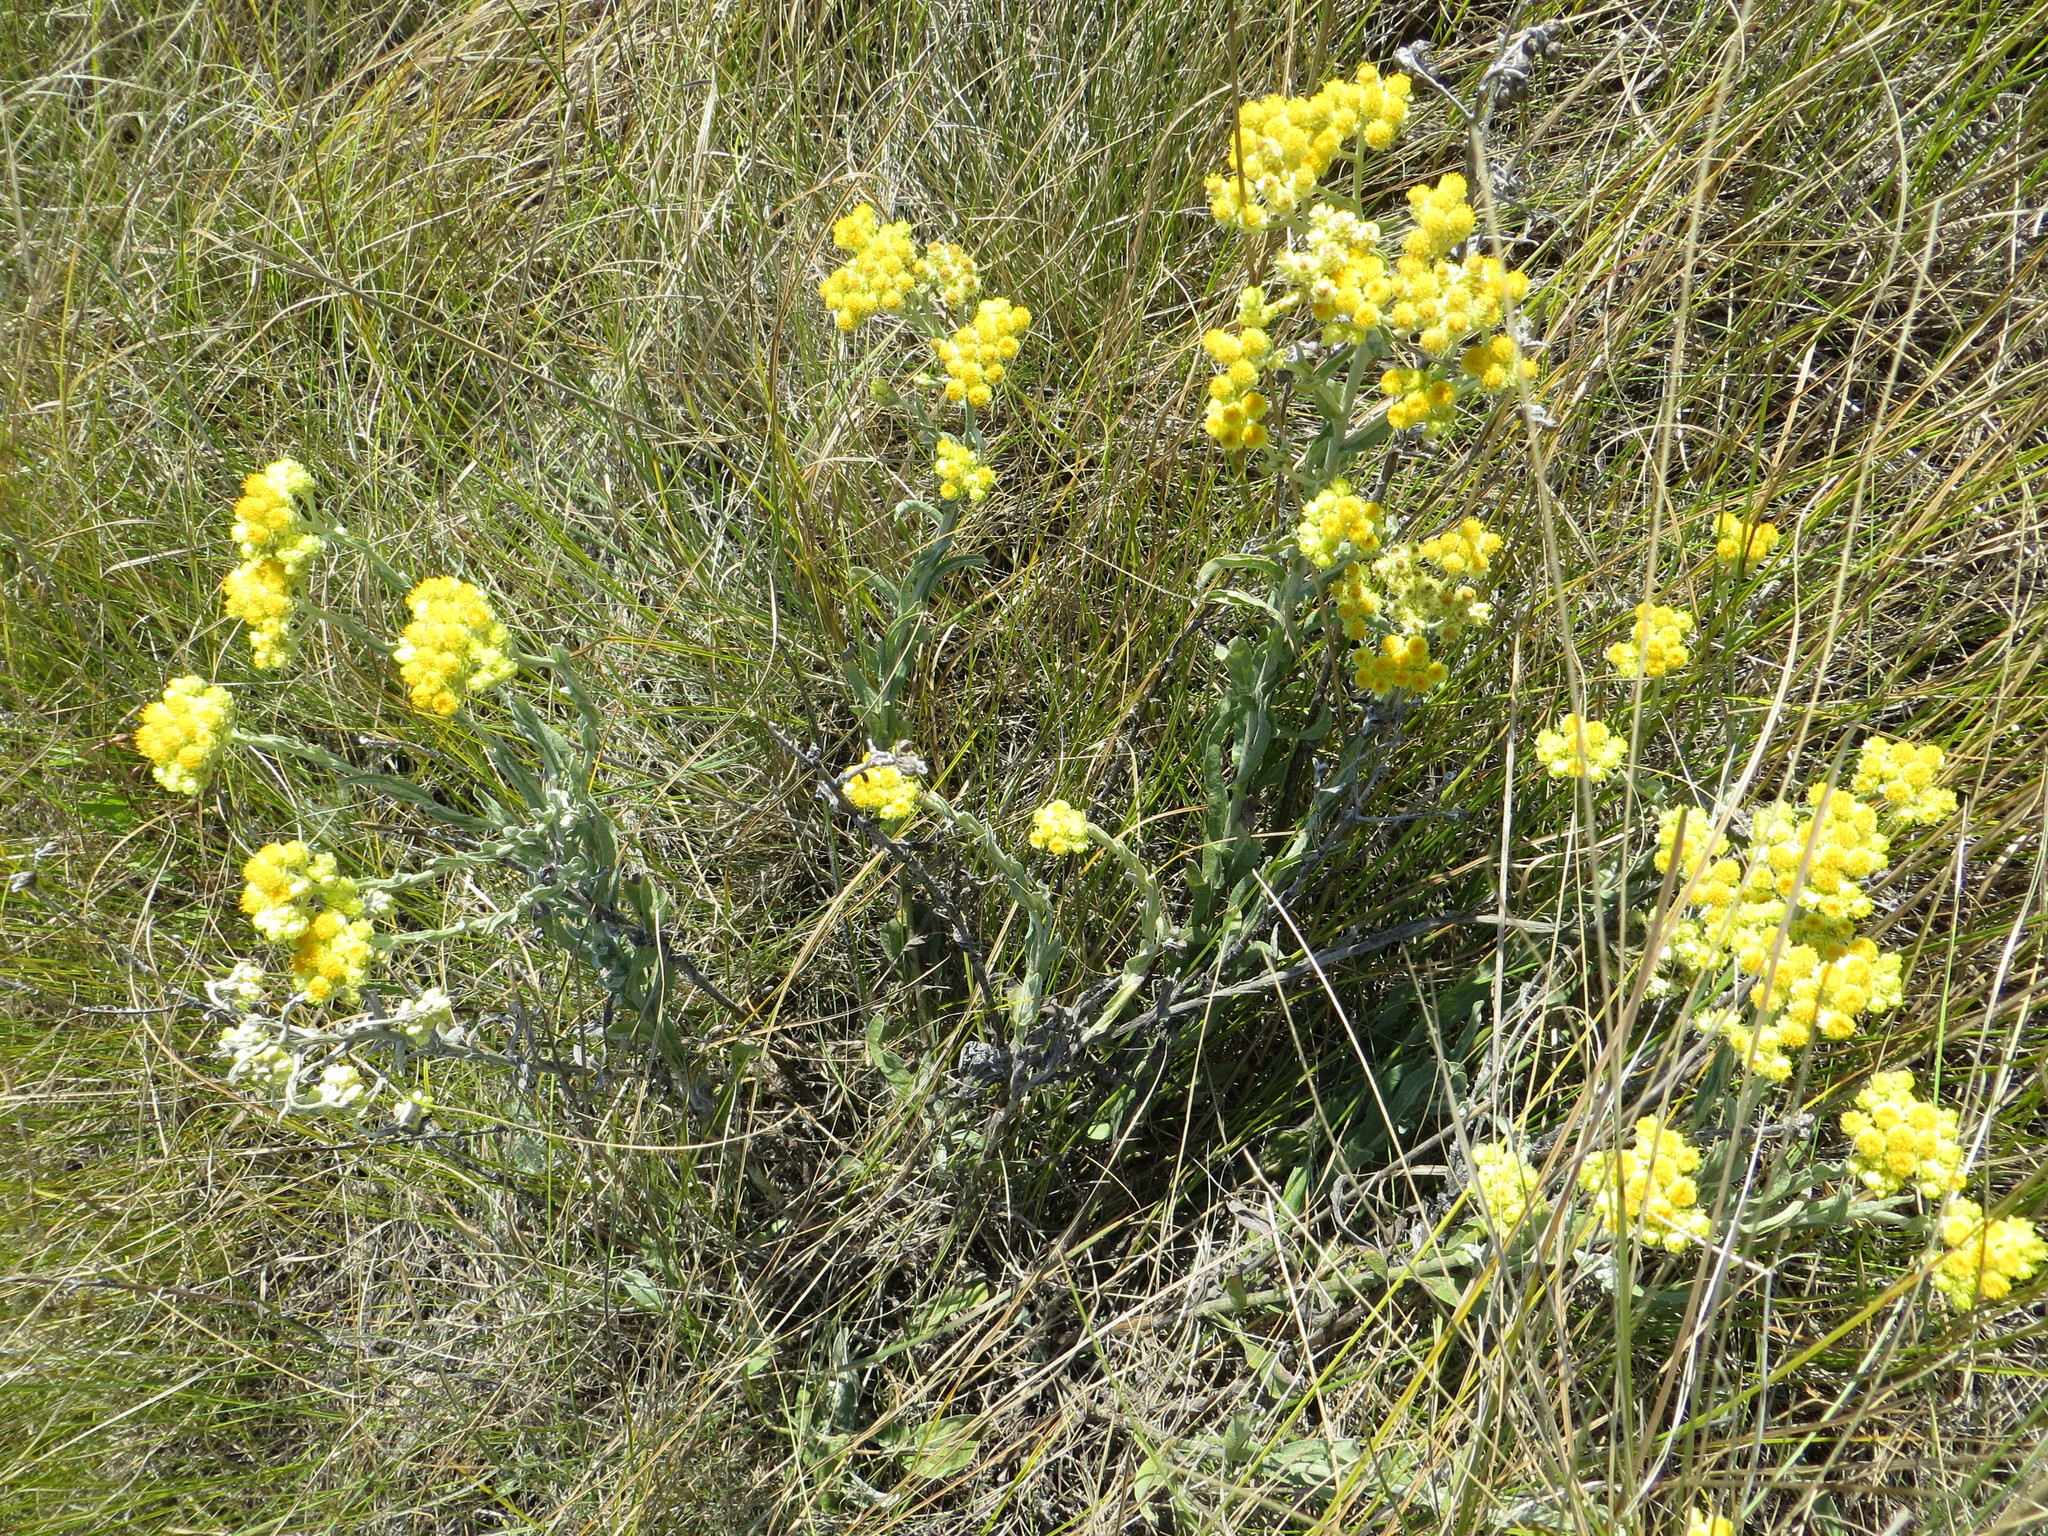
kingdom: Plantae
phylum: Tracheophyta
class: Magnoliopsida
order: Asterales
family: Asteraceae
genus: Helichrysum
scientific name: Helichrysum arenarium
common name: Strawflower
